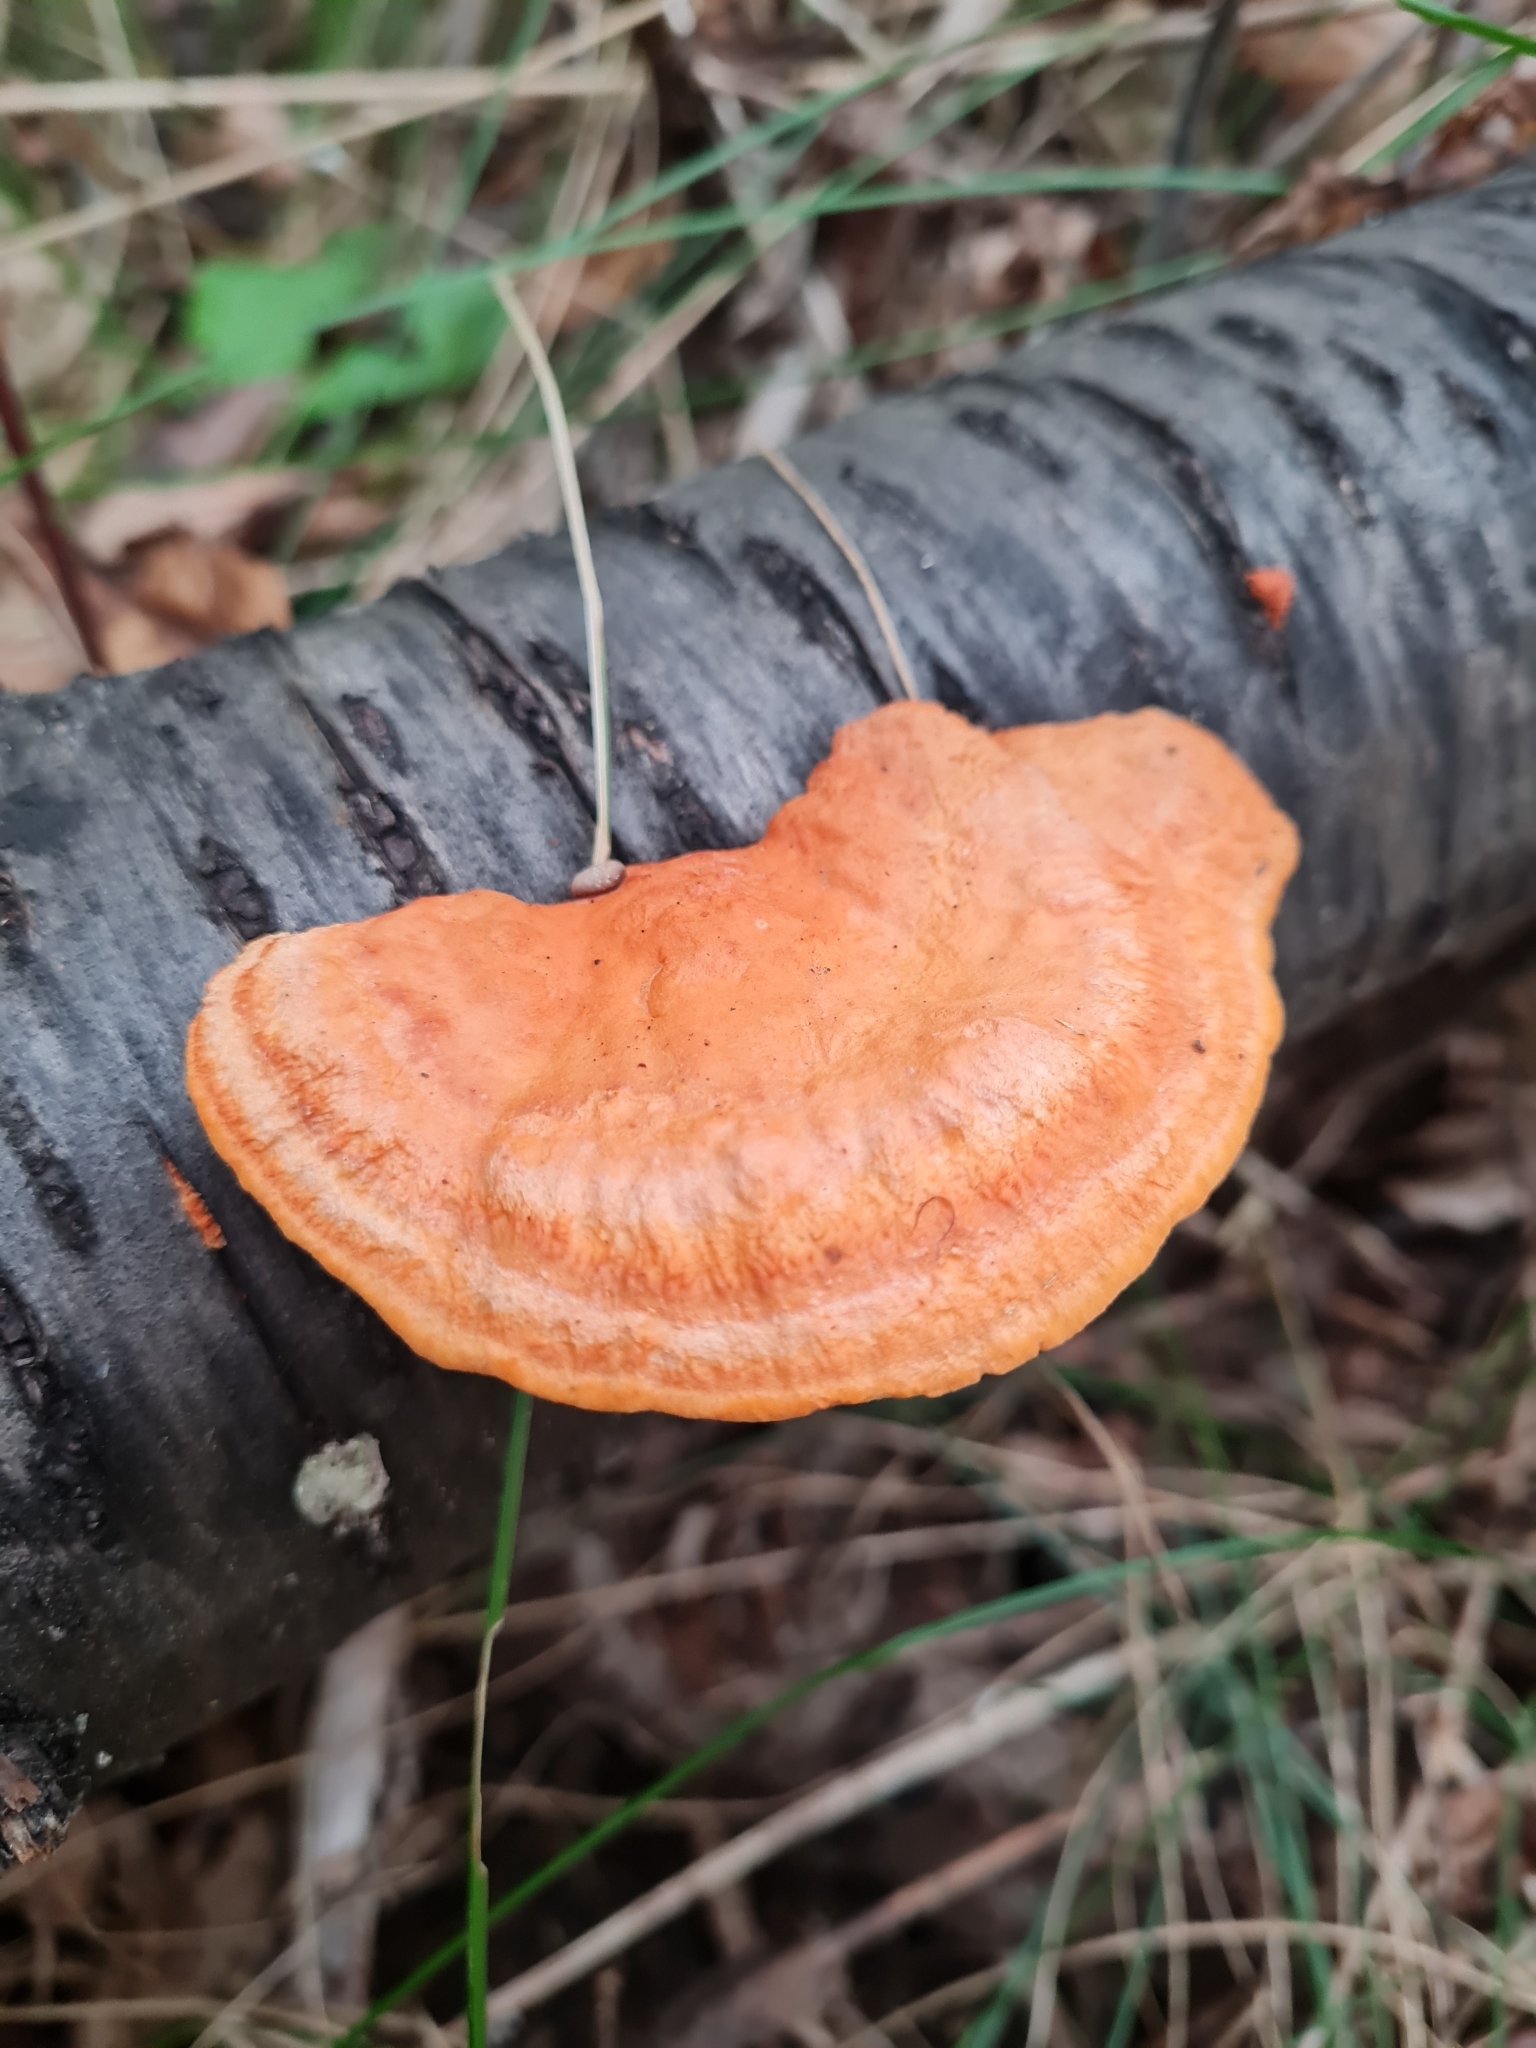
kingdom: Fungi
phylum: Basidiomycota
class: Agaricomycetes
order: Polyporales
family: Polyporaceae
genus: Trametes
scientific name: Trametes cinnabarina
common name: Northern cinnabar polypore
